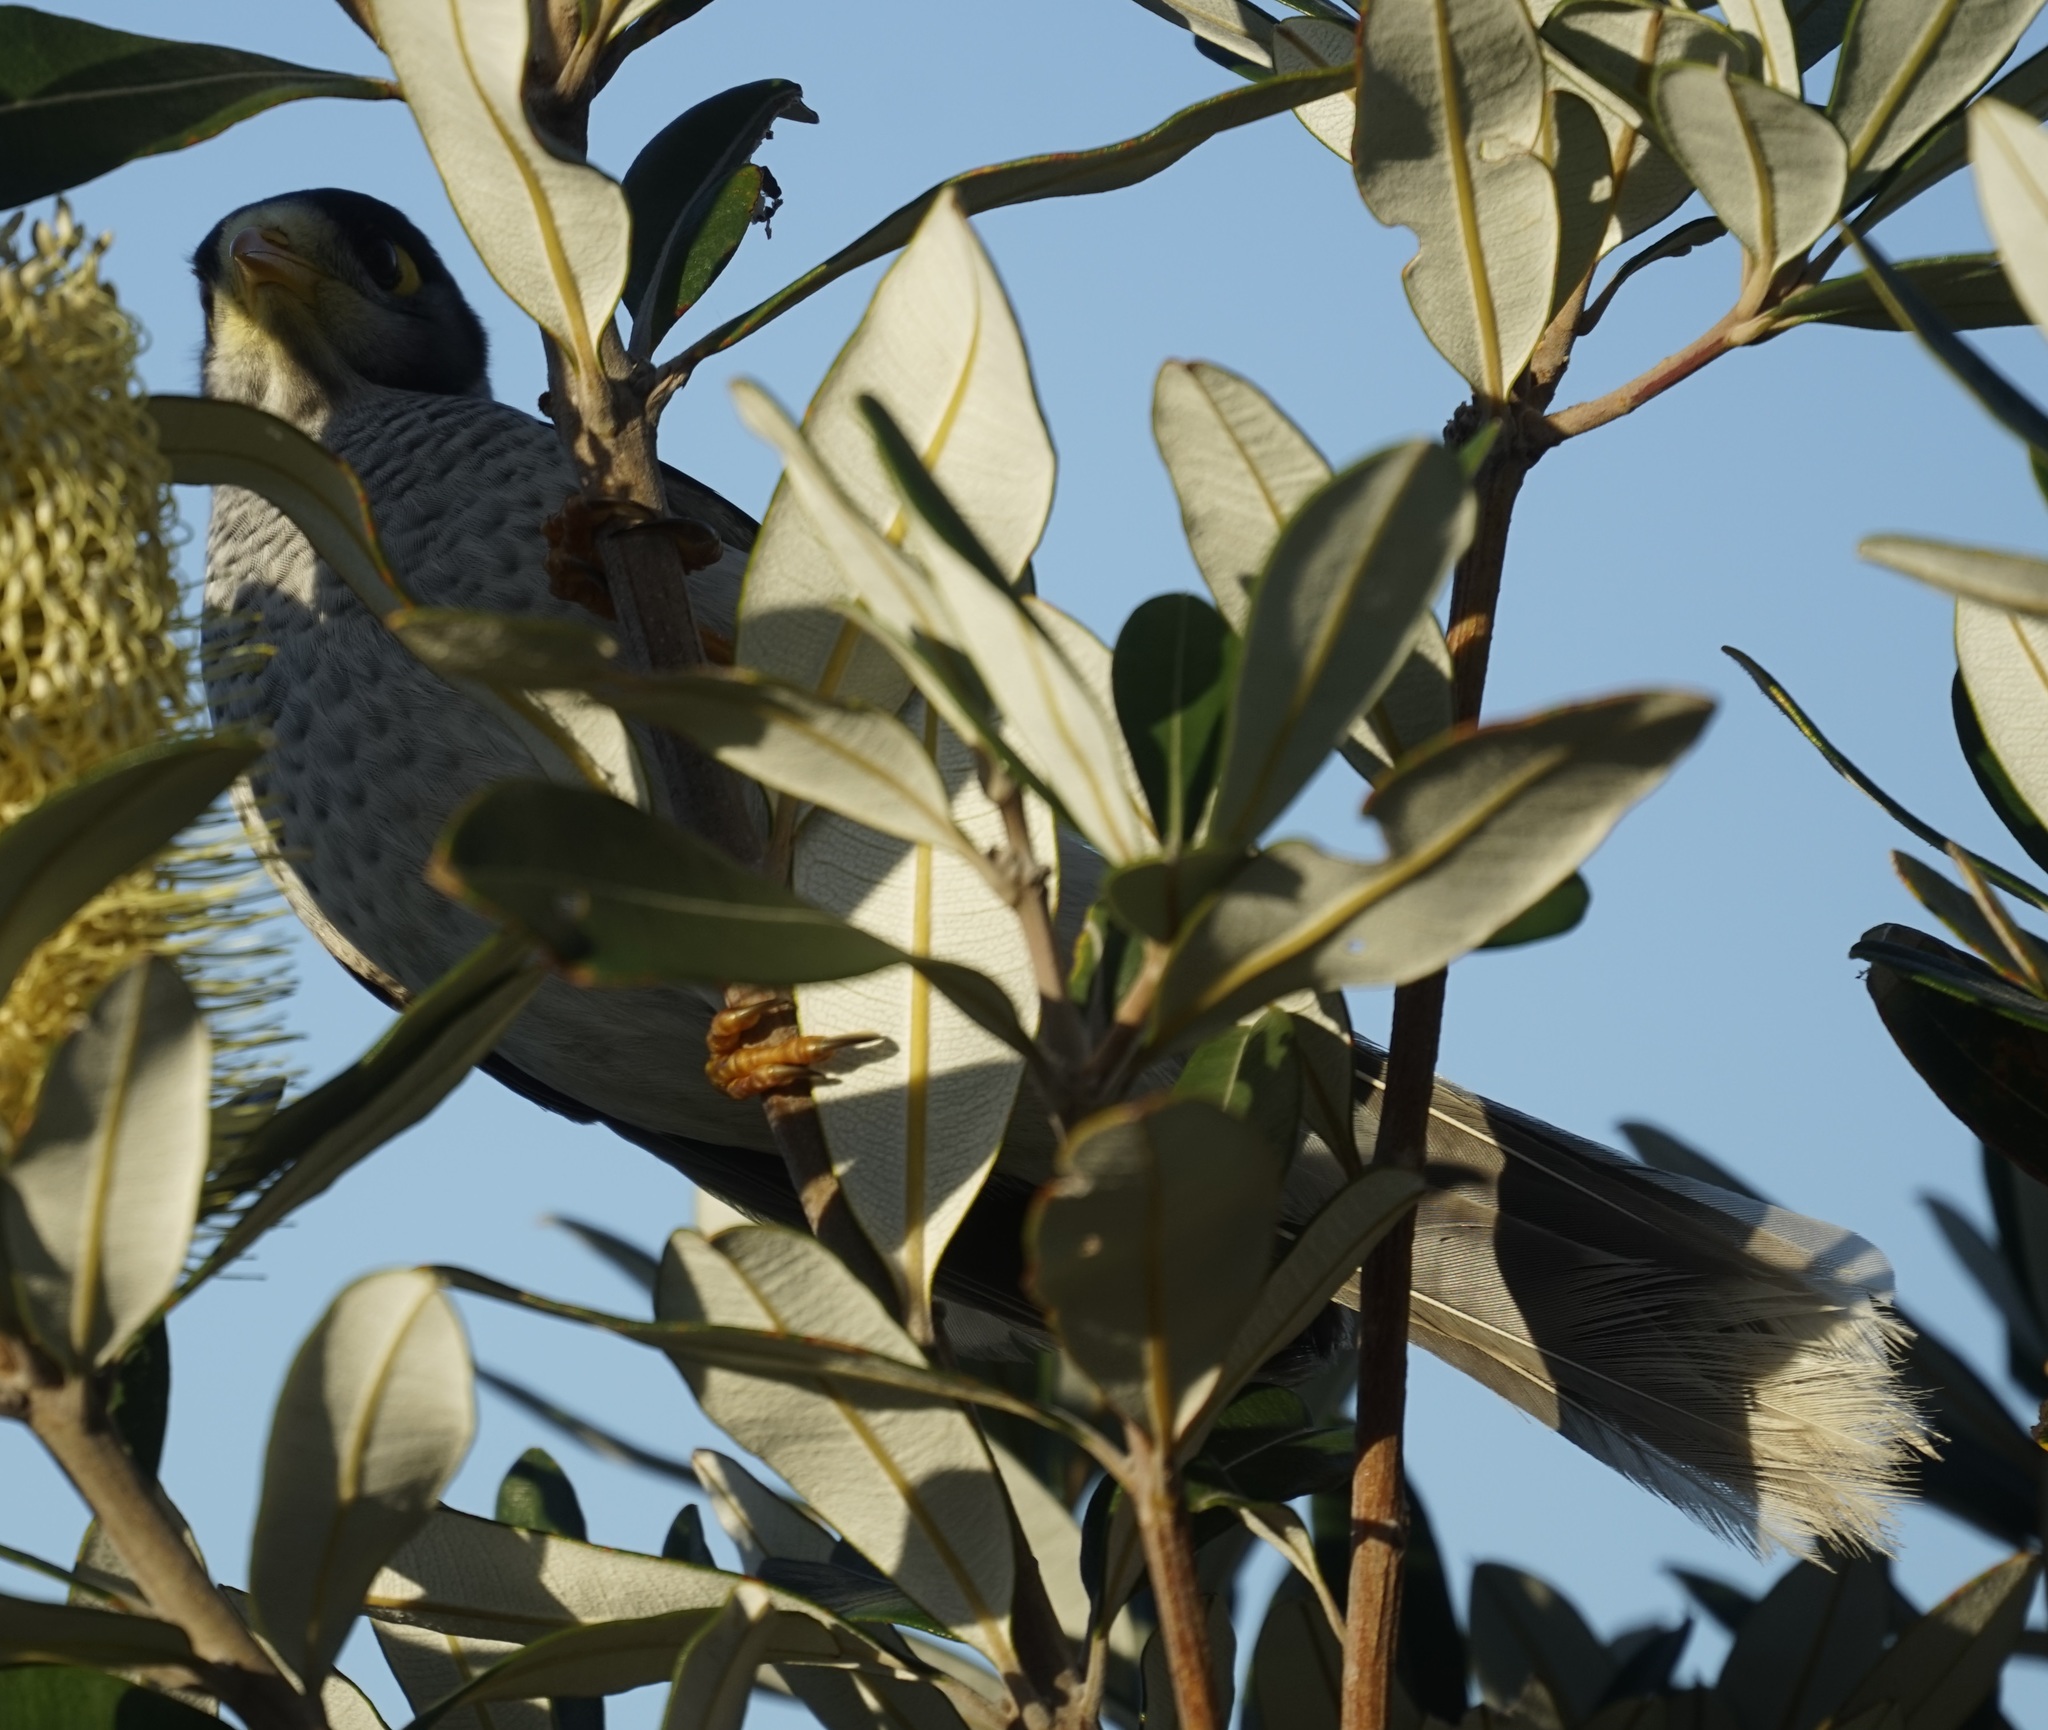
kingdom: Animalia
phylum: Chordata
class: Aves
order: Passeriformes
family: Meliphagidae
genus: Manorina
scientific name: Manorina melanocephala
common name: Noisy miner
